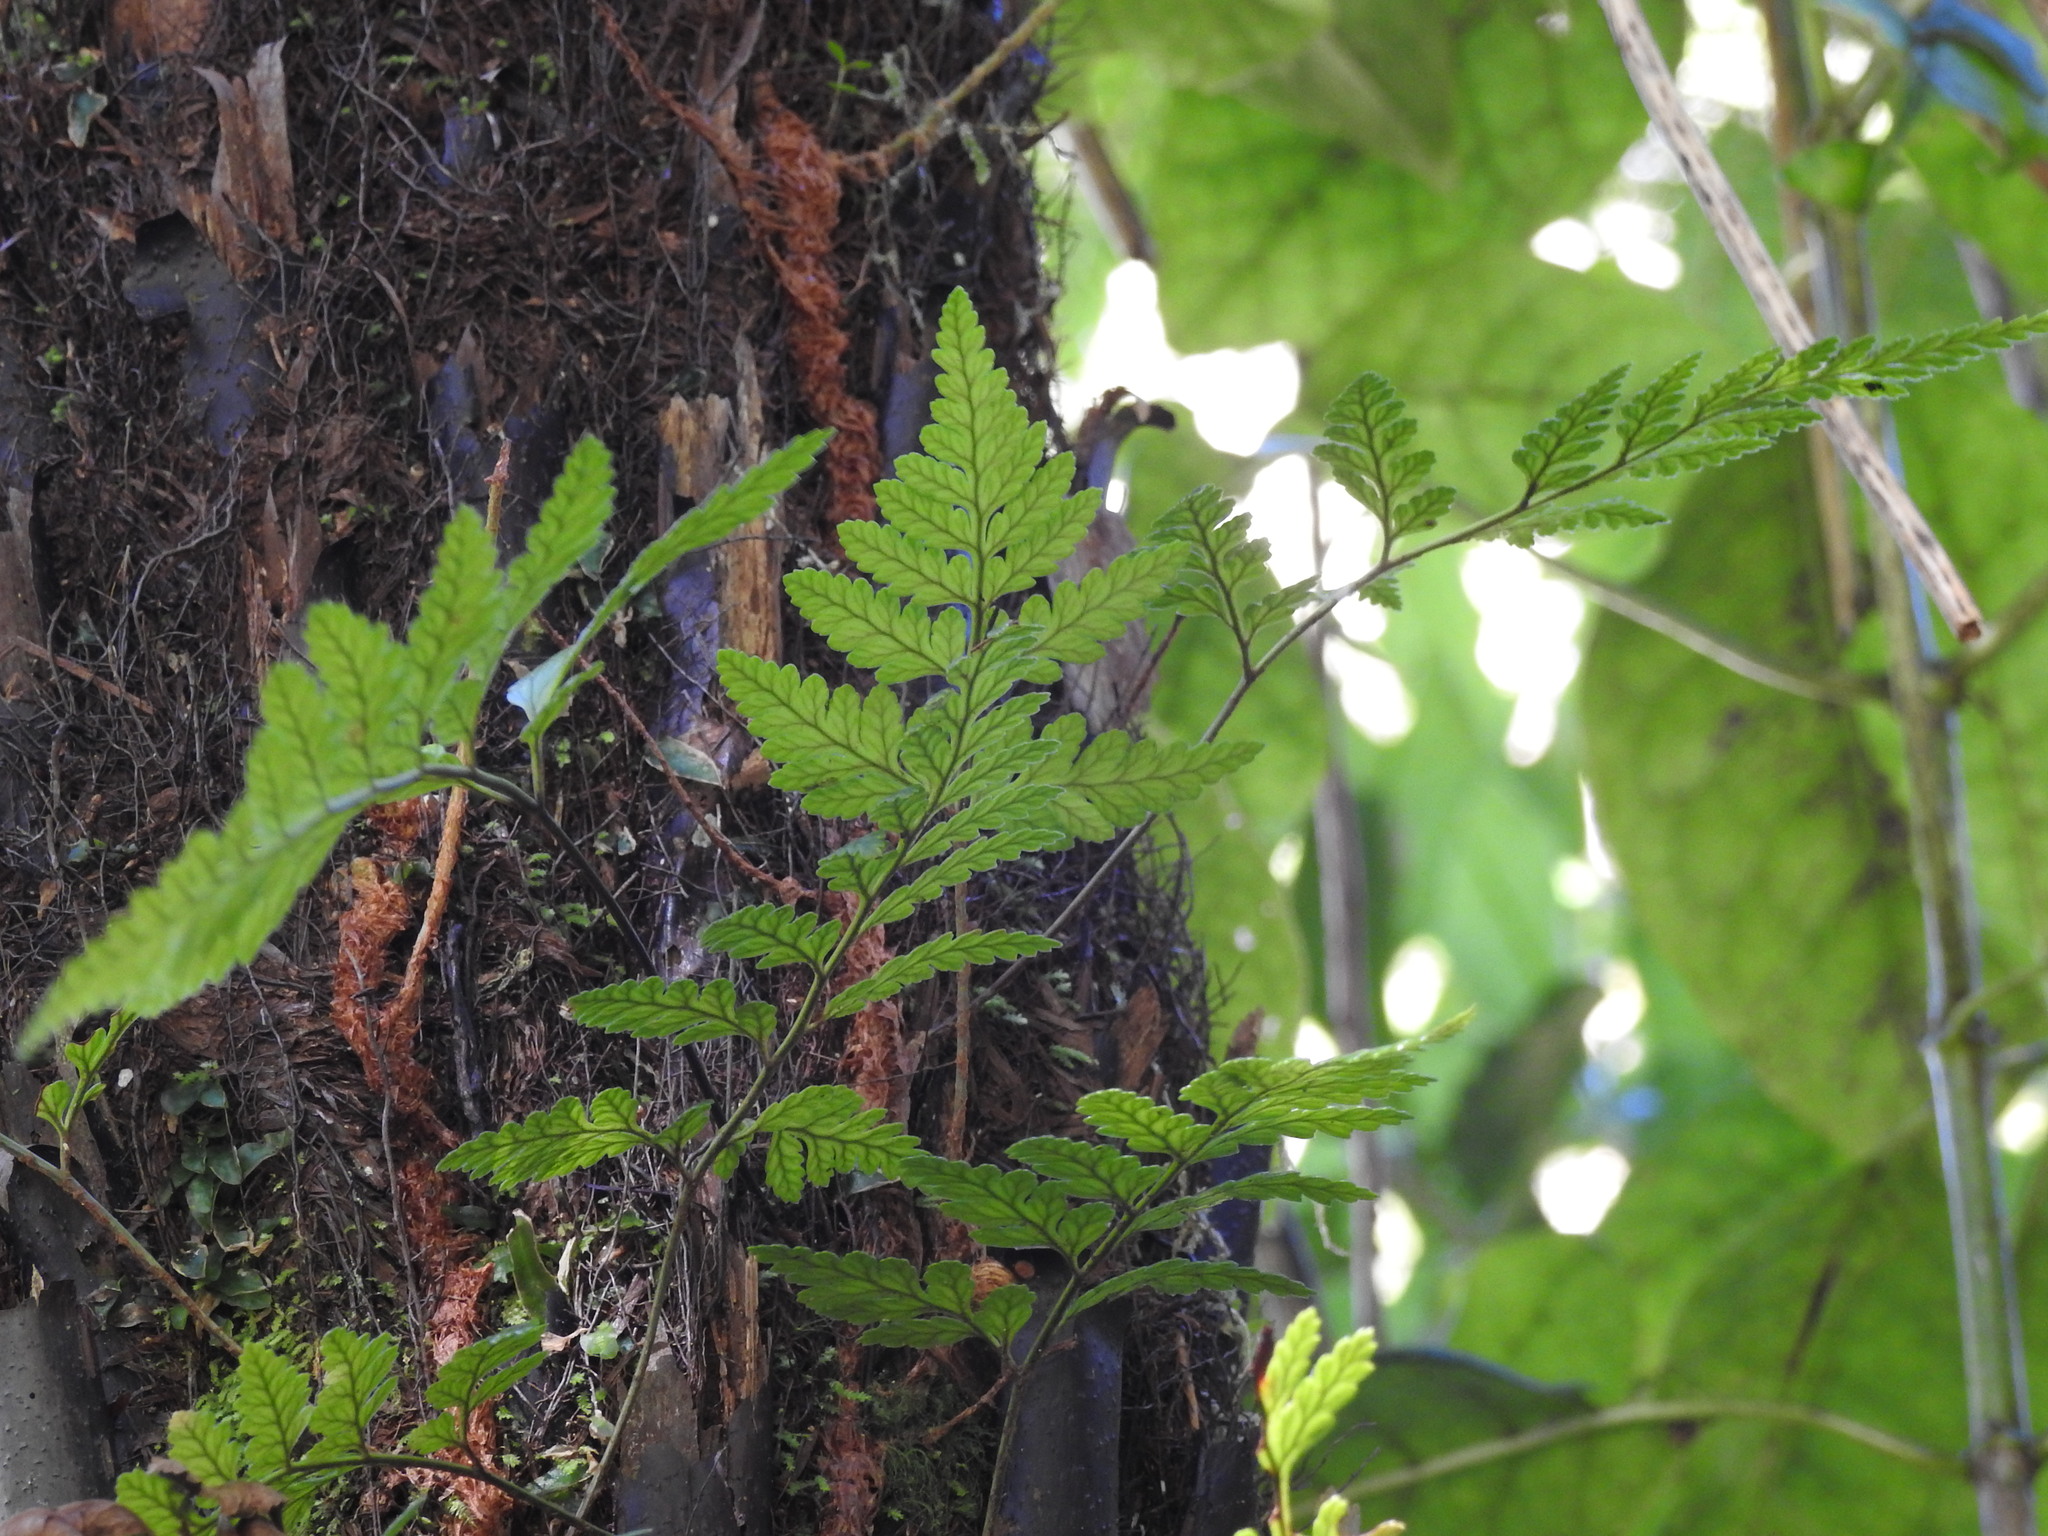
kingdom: Plantae
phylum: Tracheophyta
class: Polypodiopsida
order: Polypodiales
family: Dryopteridaceae
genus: Rumohra
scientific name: Rumohra adiantiformis
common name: Leather fern
